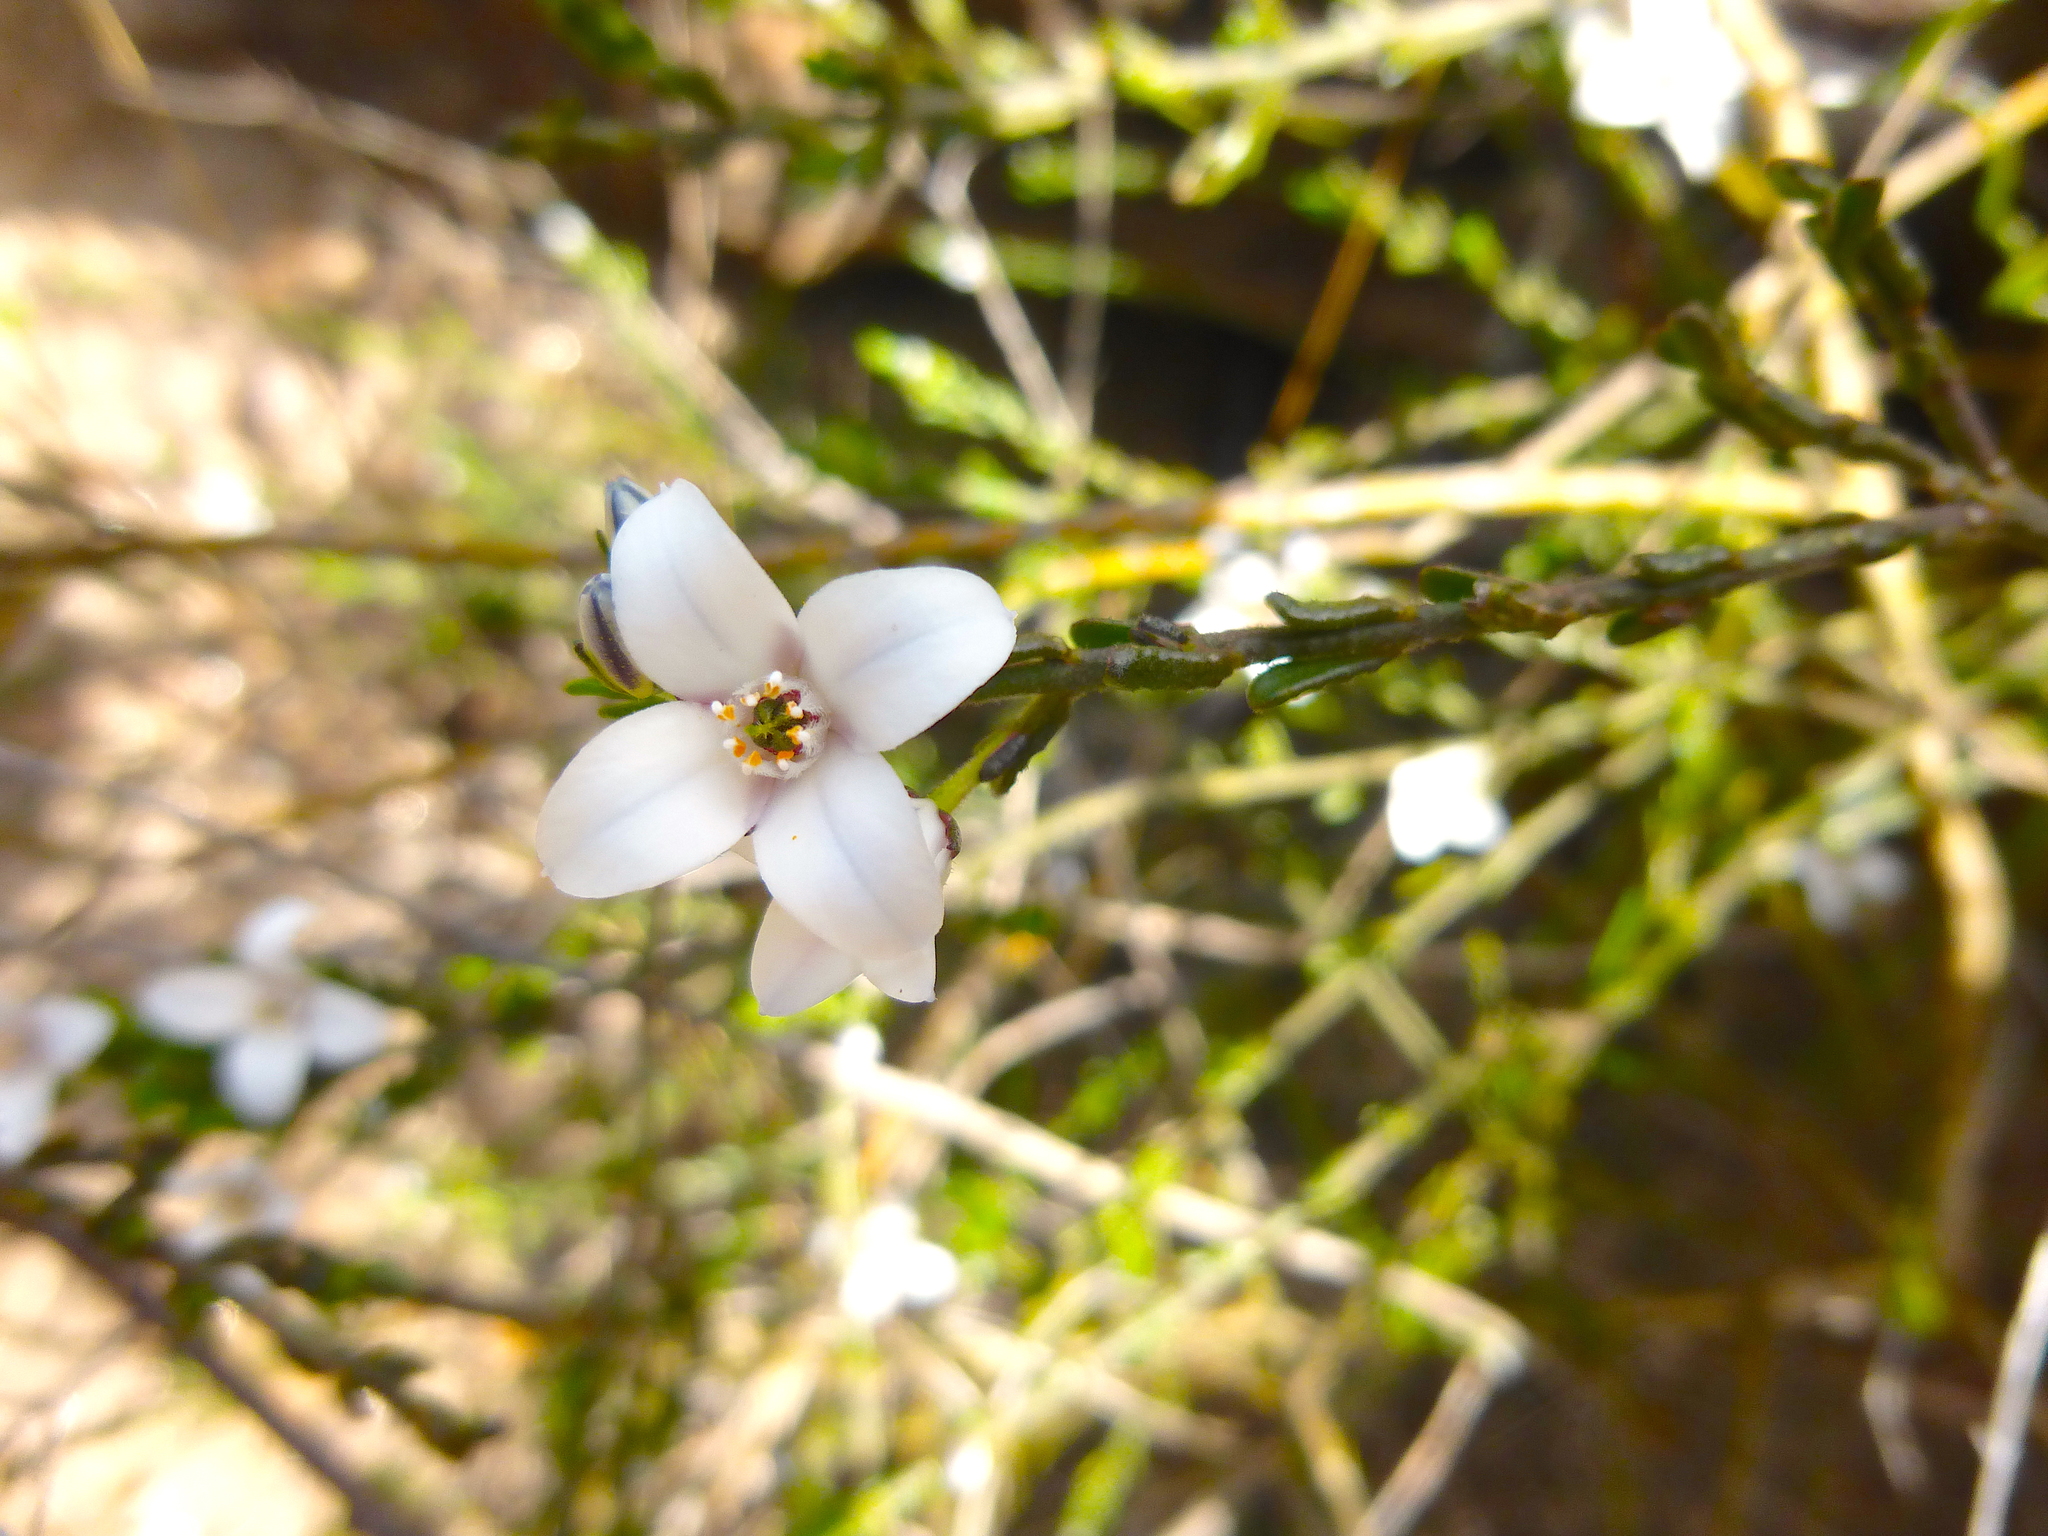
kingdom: Plantae
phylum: Tracheophyta
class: Magnoliopsida
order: Sapindales
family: Rutaceae
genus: Cyanothamnus
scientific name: Cyanothamnus coerulescens
